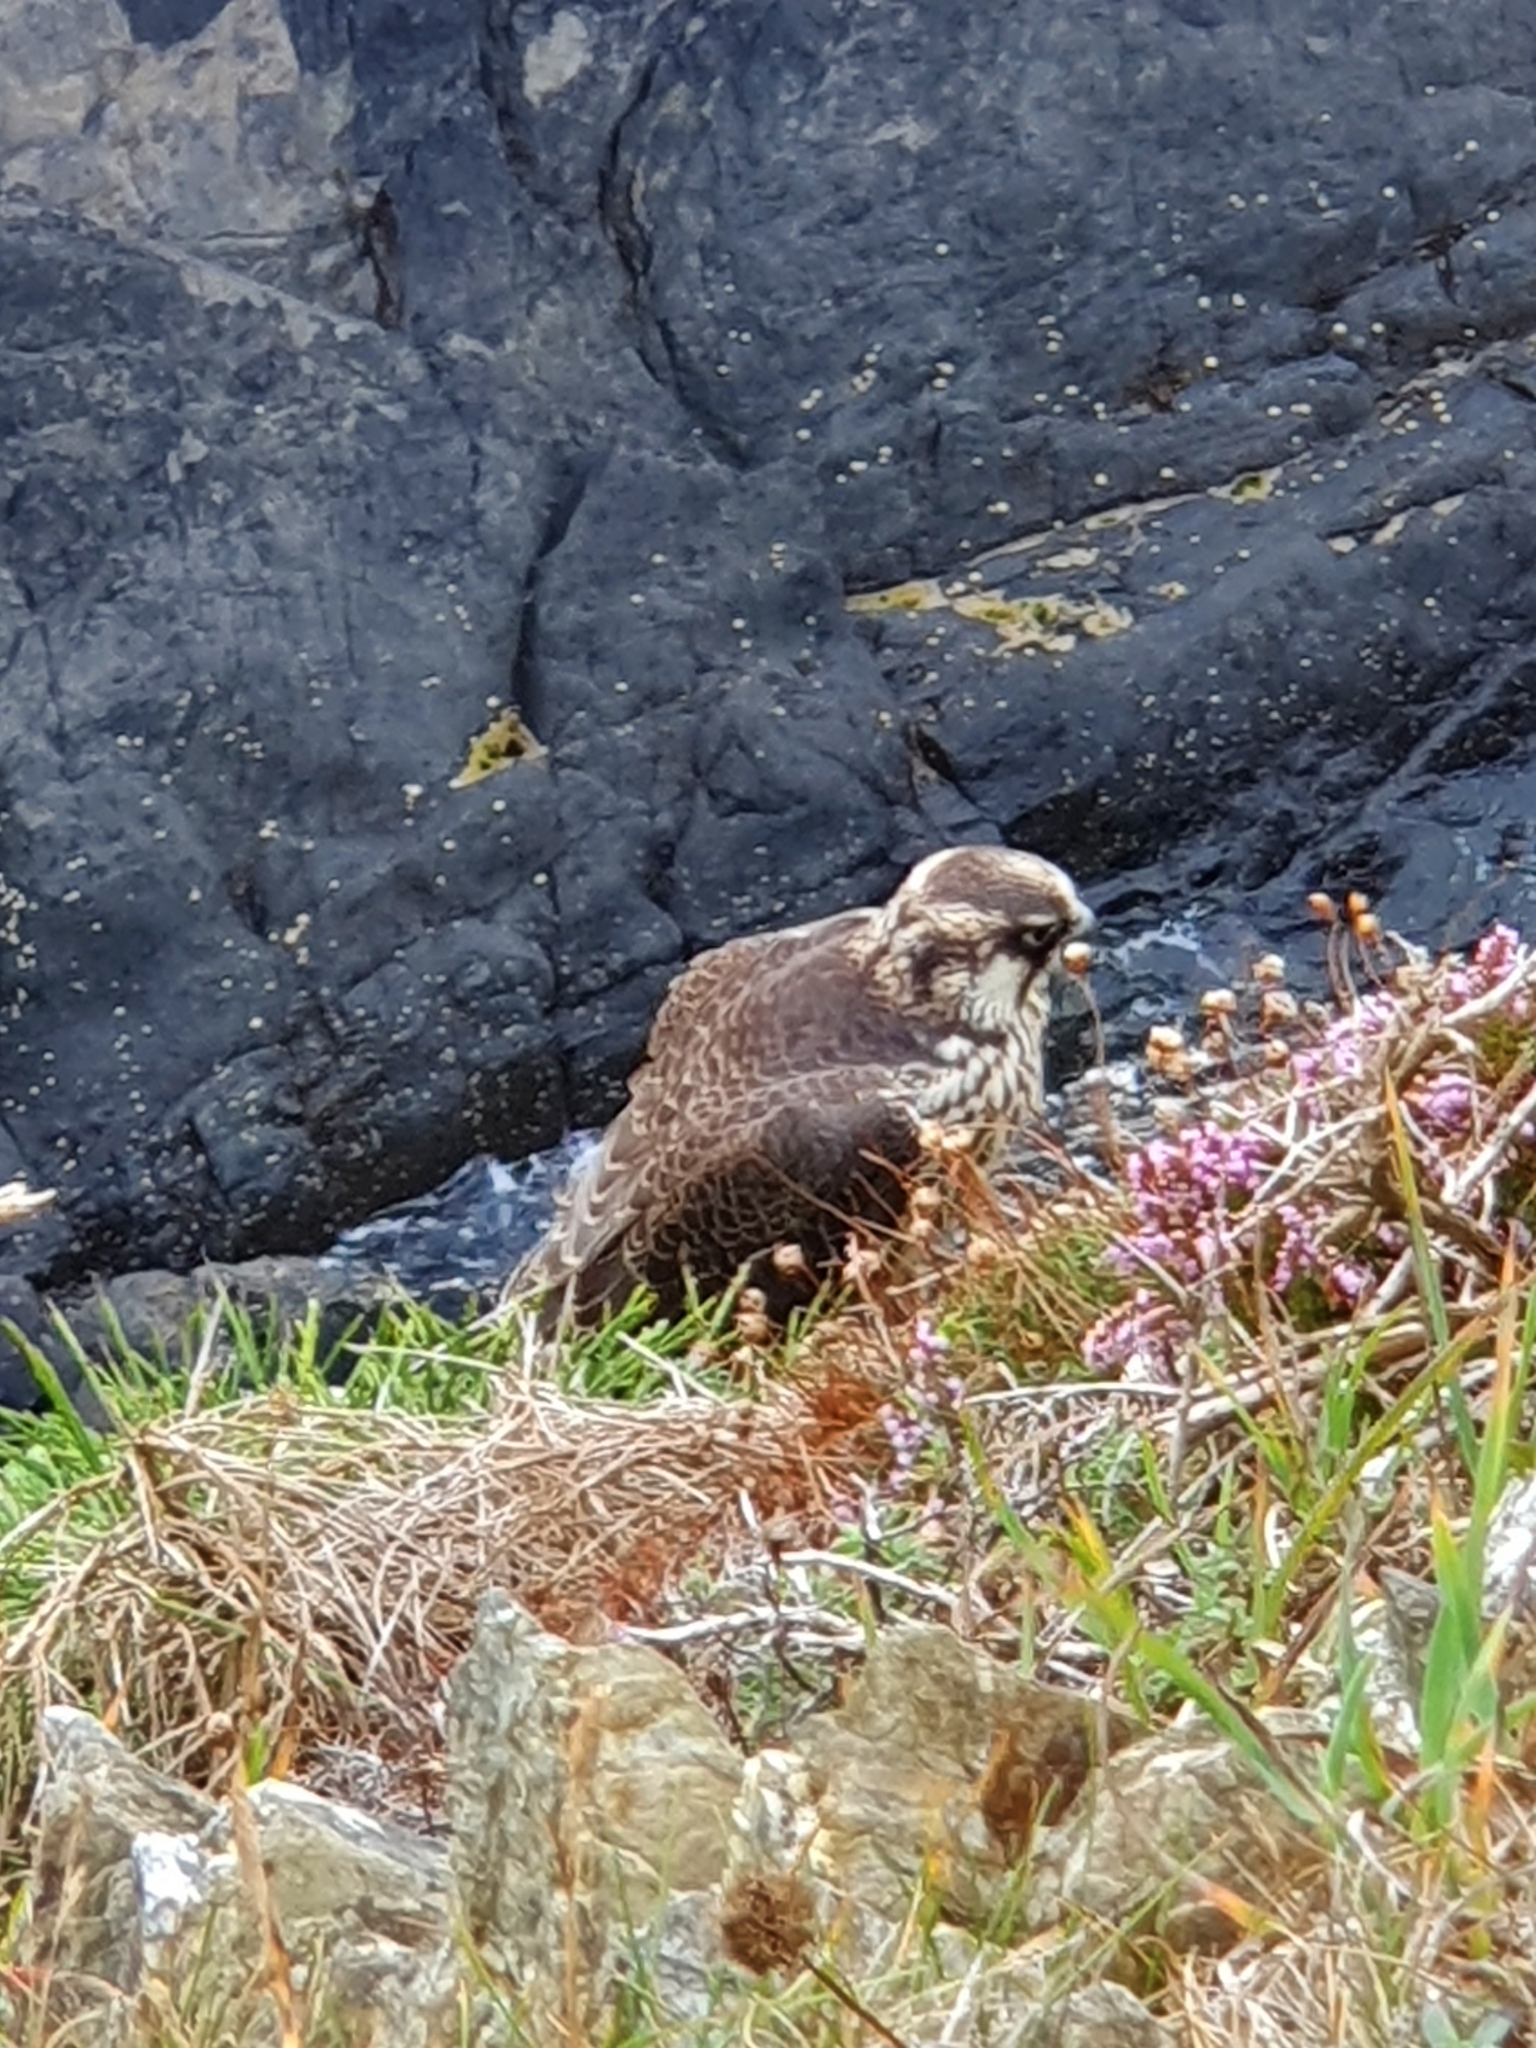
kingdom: Animalia
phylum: Chordata
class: Aves
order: Falconiformes
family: Falconidae
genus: Falco
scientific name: Falco peregrinus
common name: Peregrine falcon
